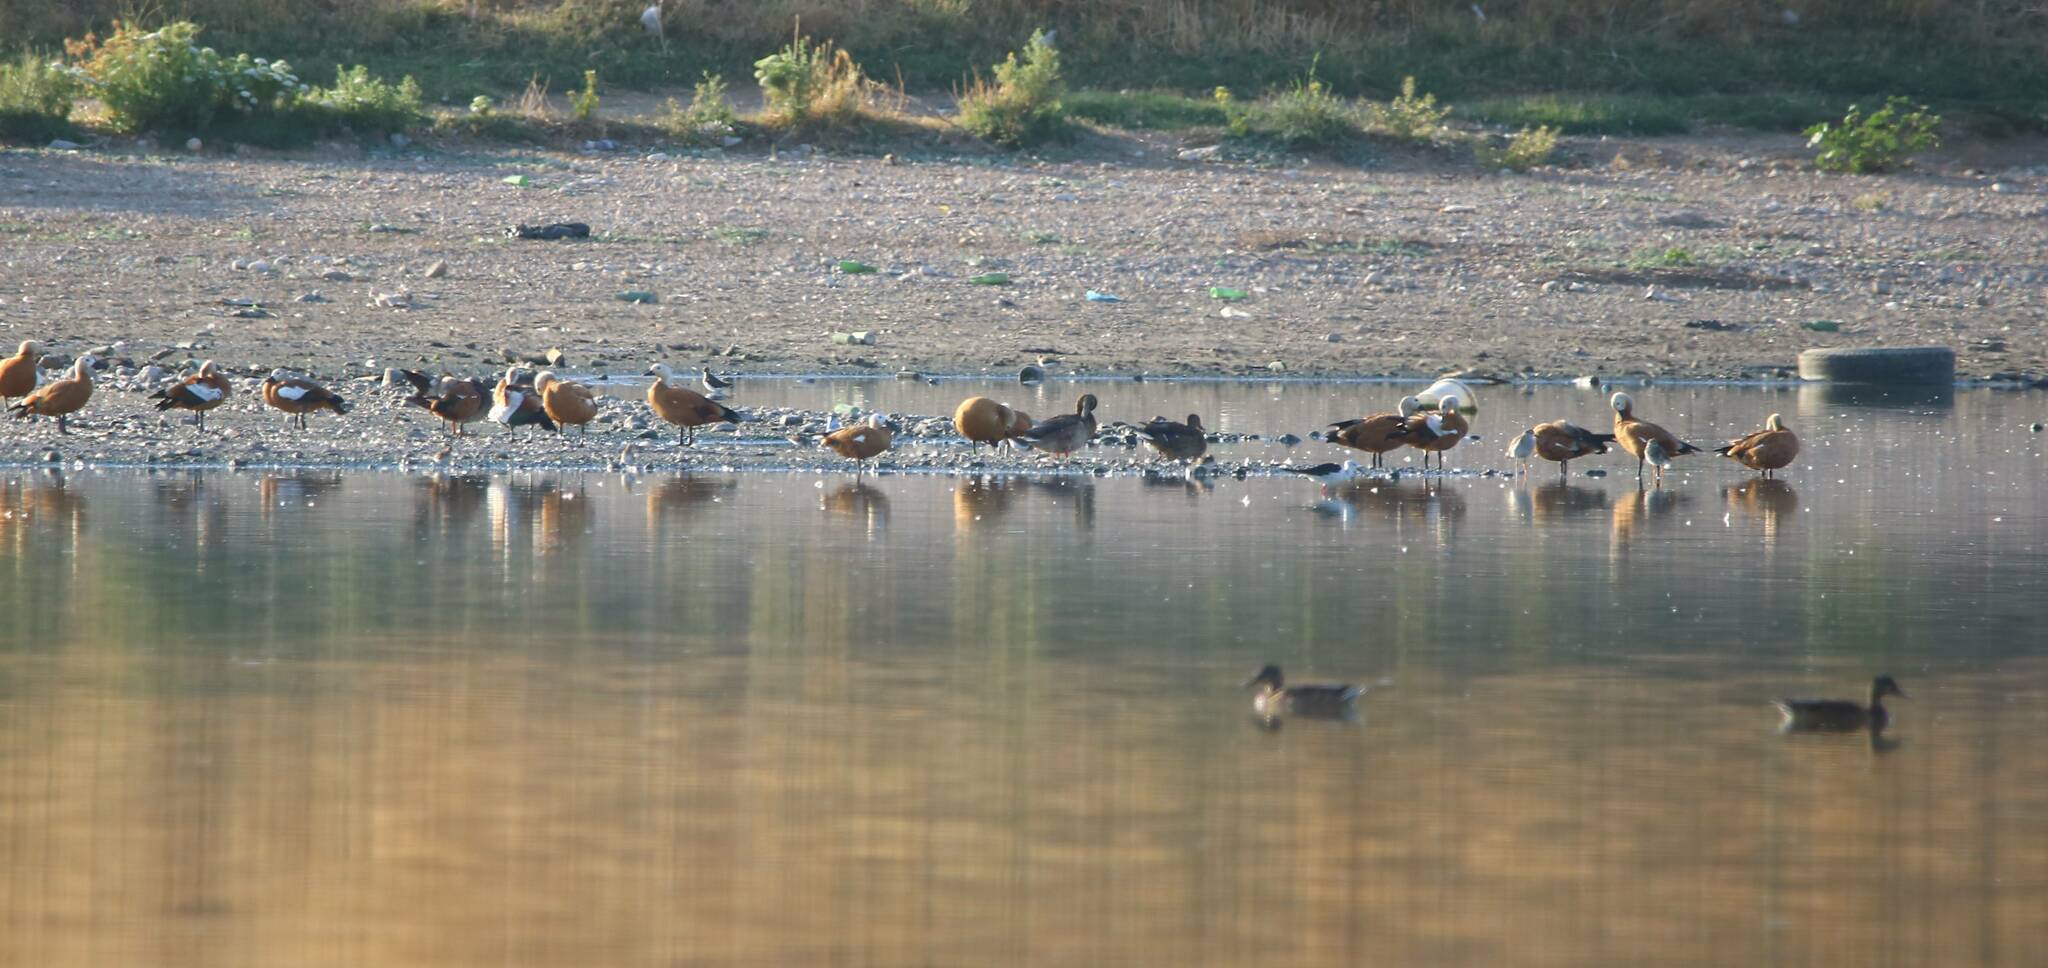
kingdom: Animalia
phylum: Chordata
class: Aves
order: Anseriformes
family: Anatidae
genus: Tadorna
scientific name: Tadorna ferruginea
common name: Ruddy shelduck
